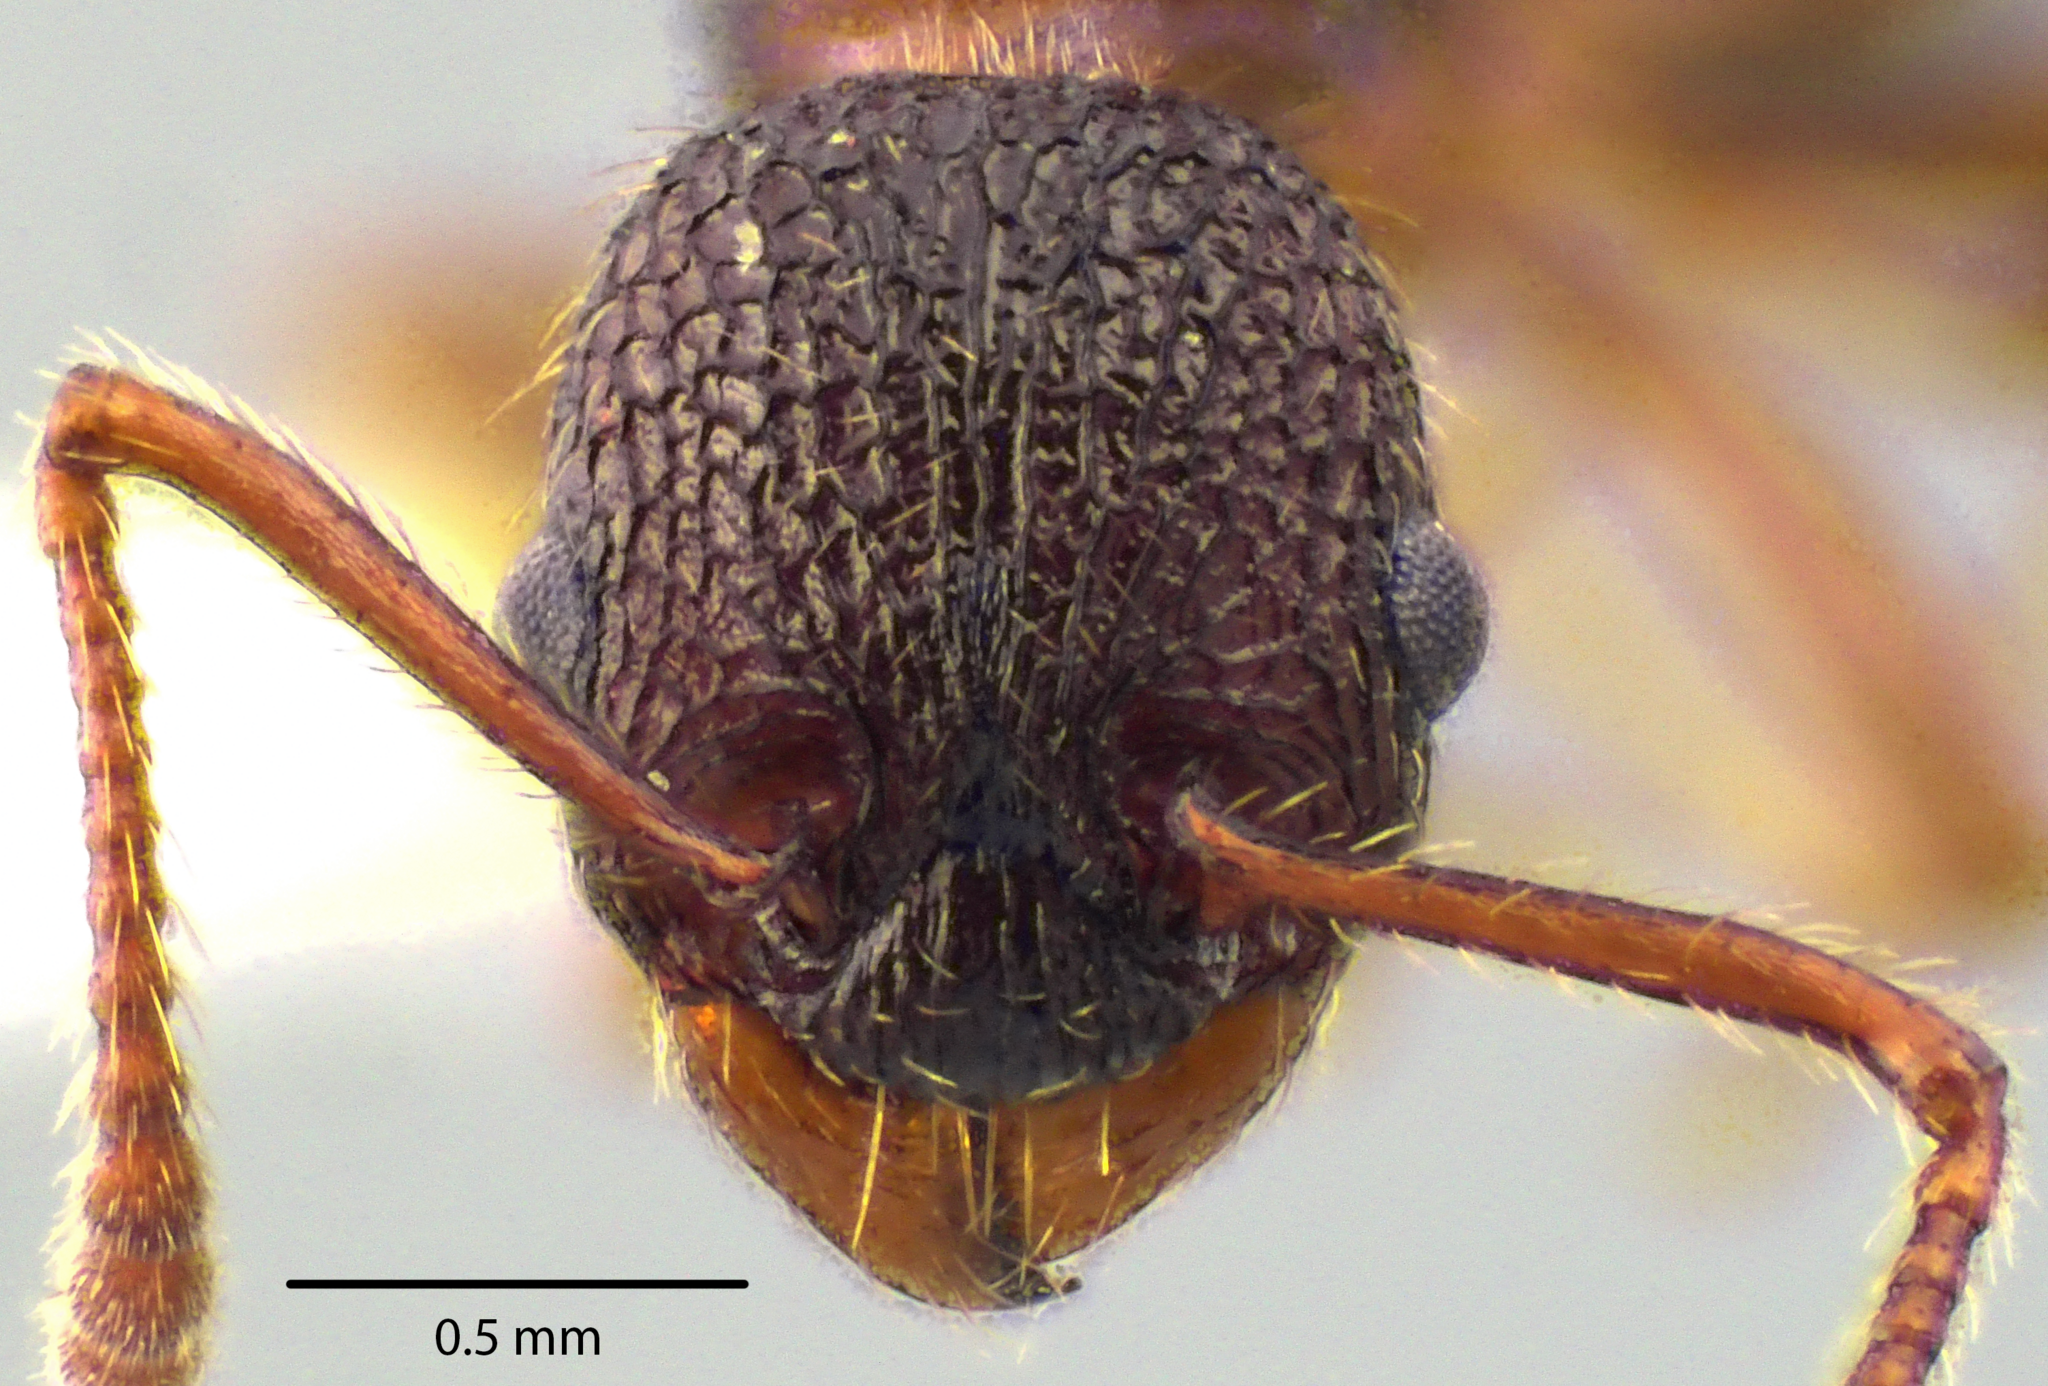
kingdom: Animalia
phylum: Arthropoda
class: Insecta
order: Hymenoptera
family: Formicidae
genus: Myrmica
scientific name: Myrmica spatulata
